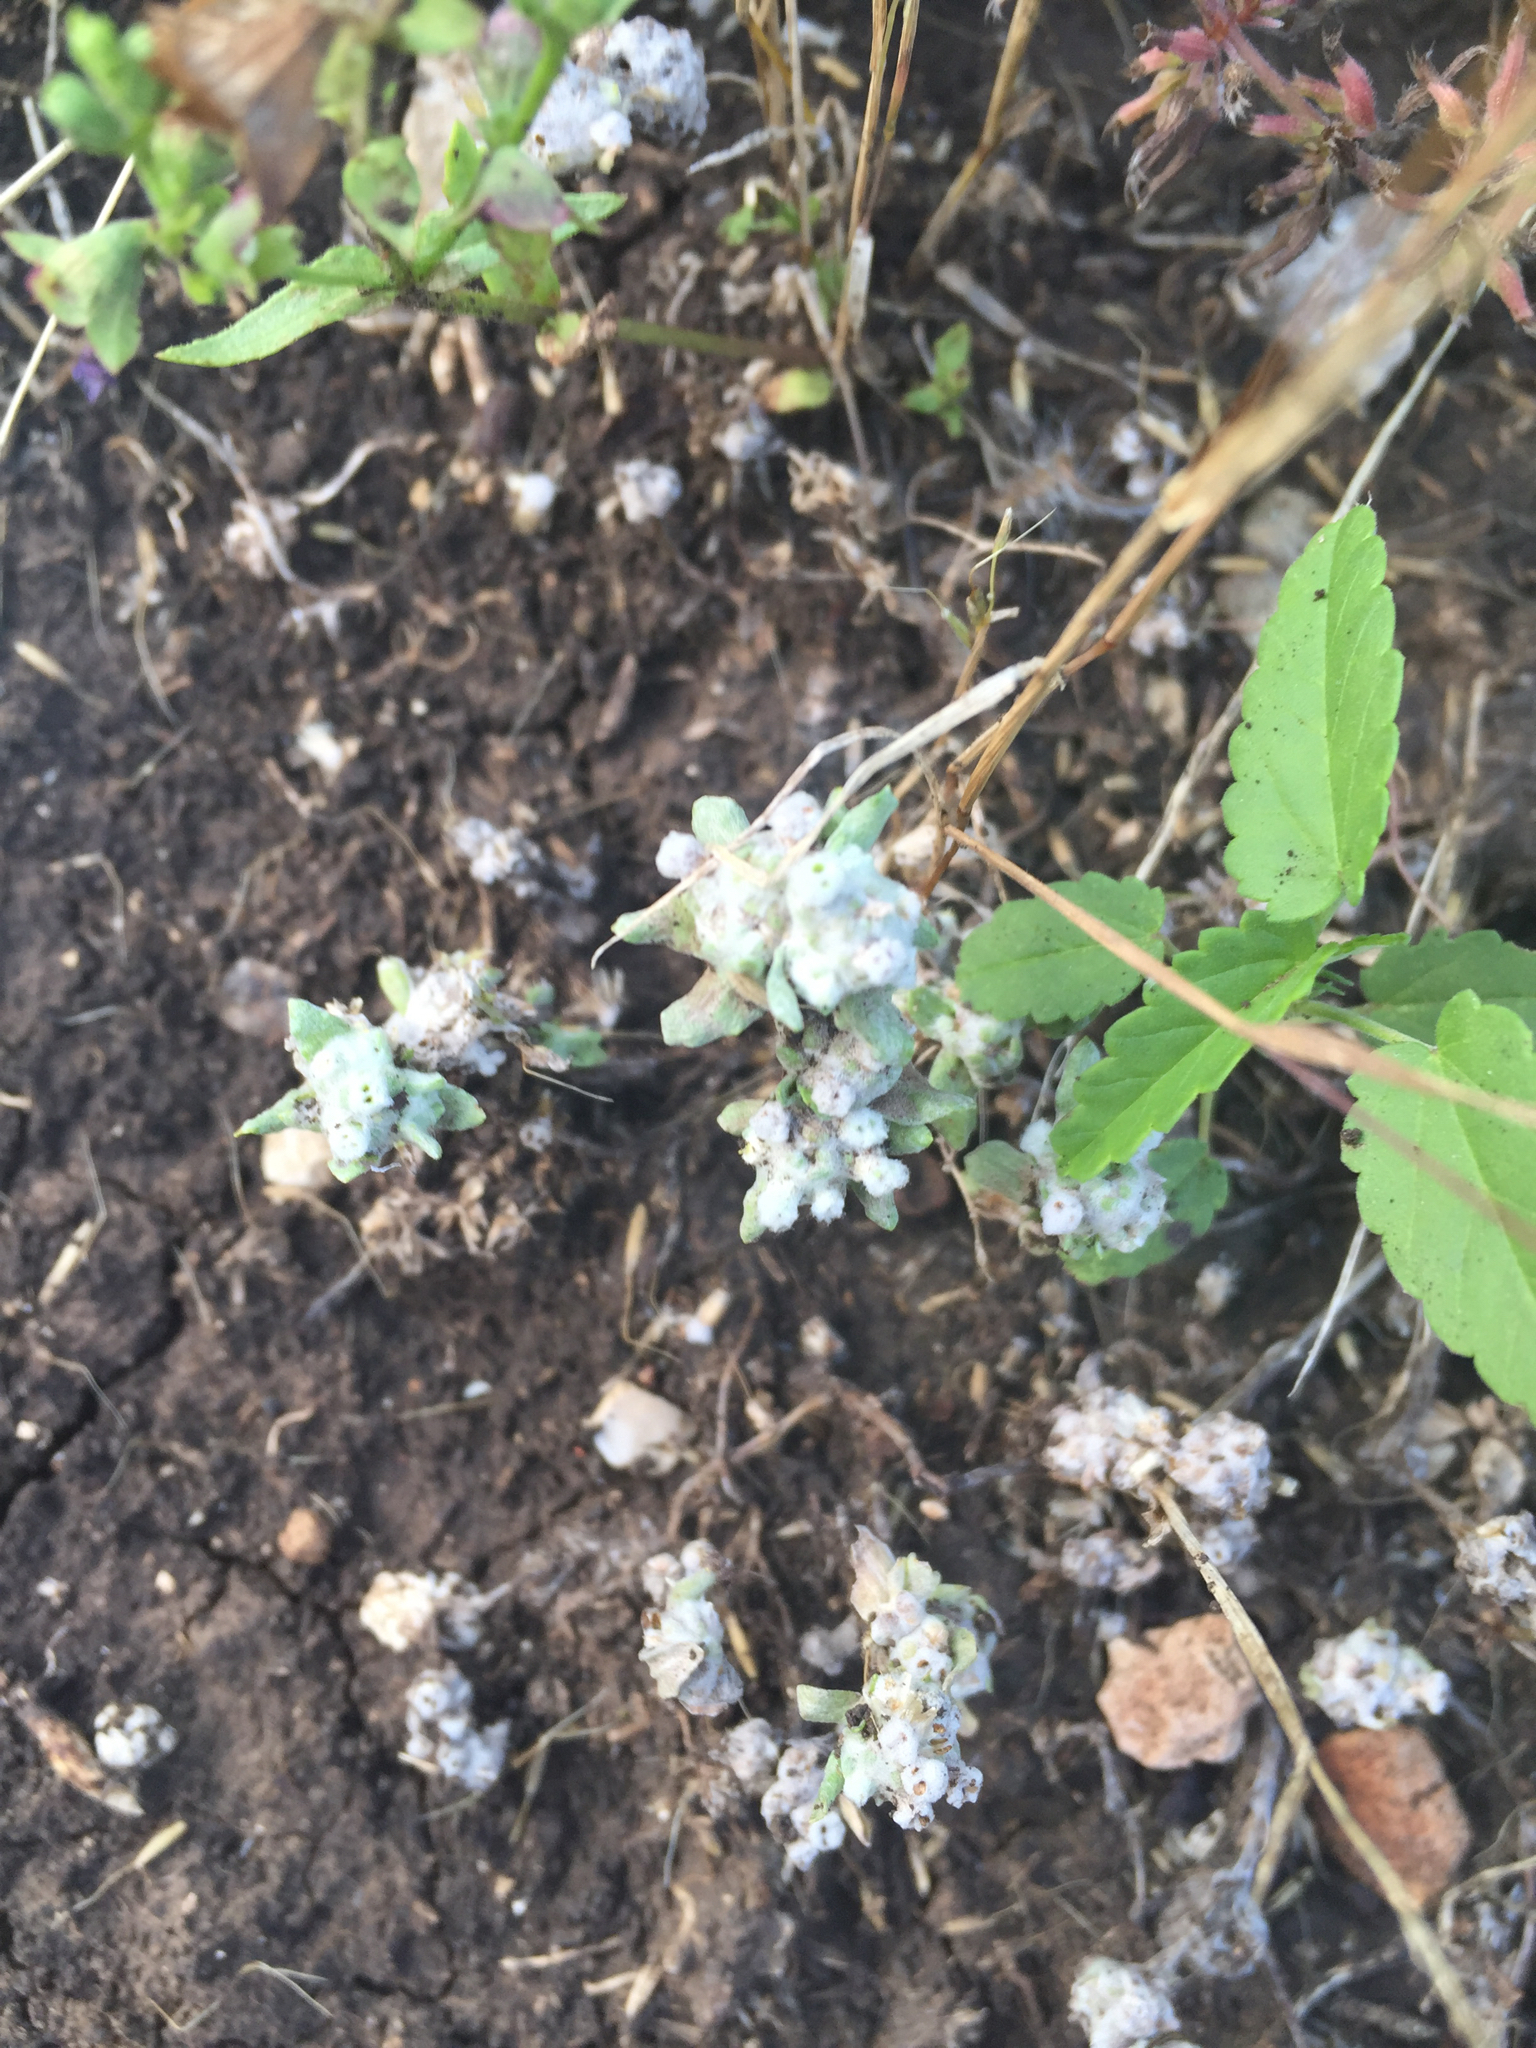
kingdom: Plantae
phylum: Tracheophyta
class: Magnoliopsida
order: Asterales
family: Asteraceae
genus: Diaperia
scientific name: Diaperia verna
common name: Many-stem rabbit-tobacco
